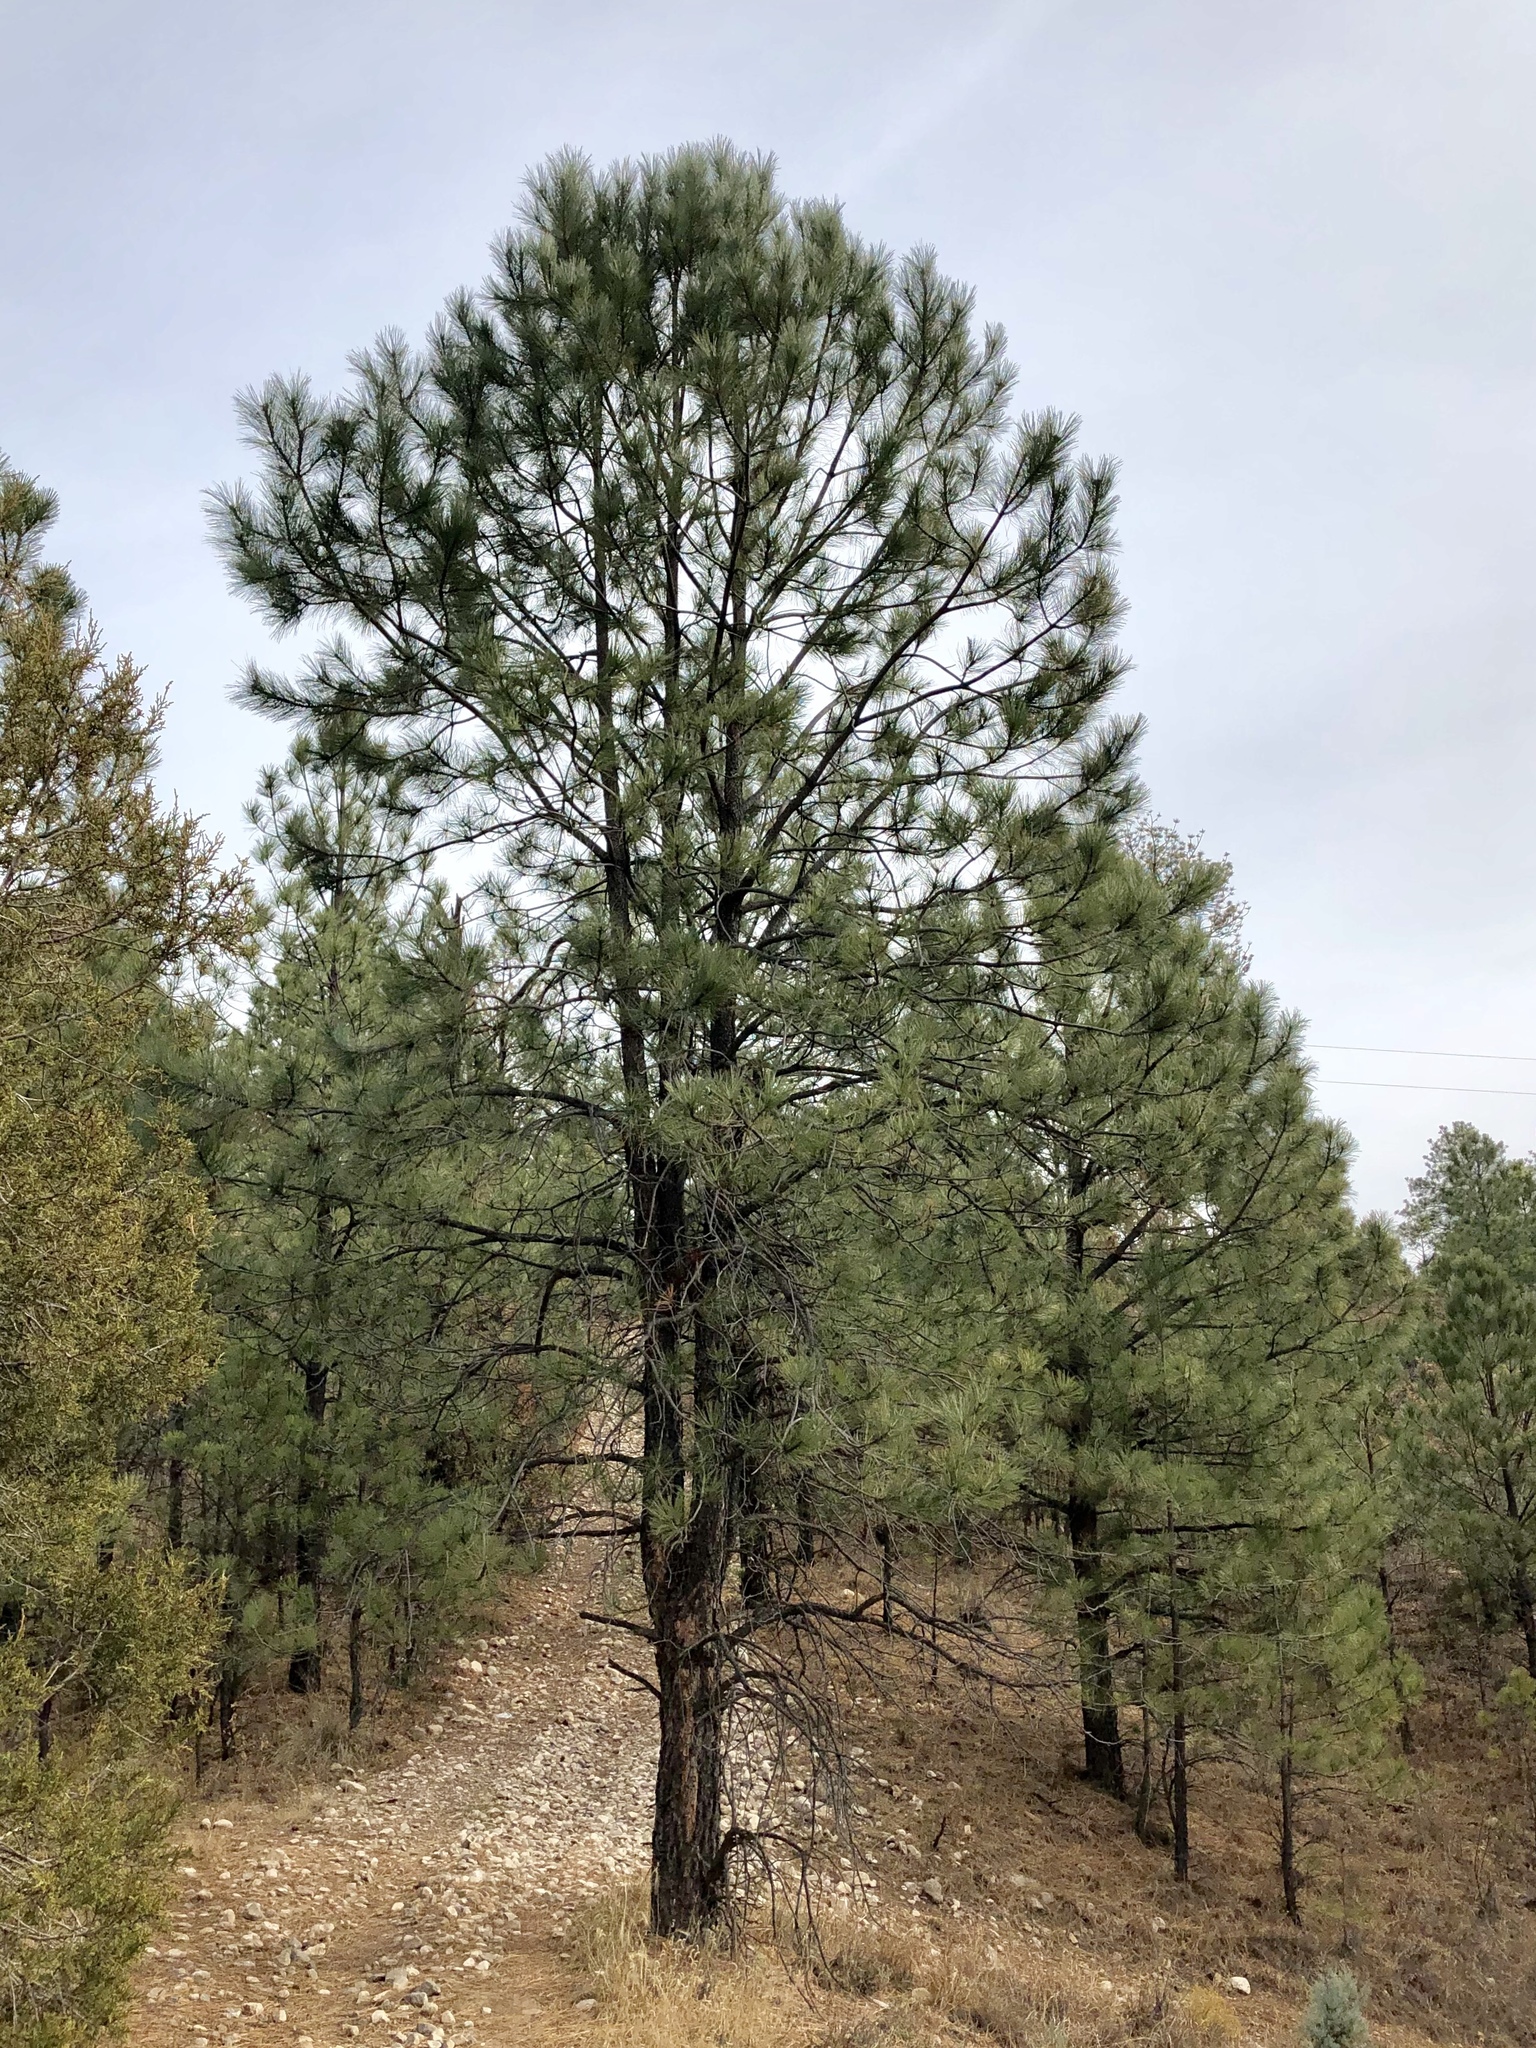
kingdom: Plantae
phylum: Tracheophyta
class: Pinopsida
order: Pinales
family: Pinaceae
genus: Pinus
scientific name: Pinus ponderosa
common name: Western yellow-pine
